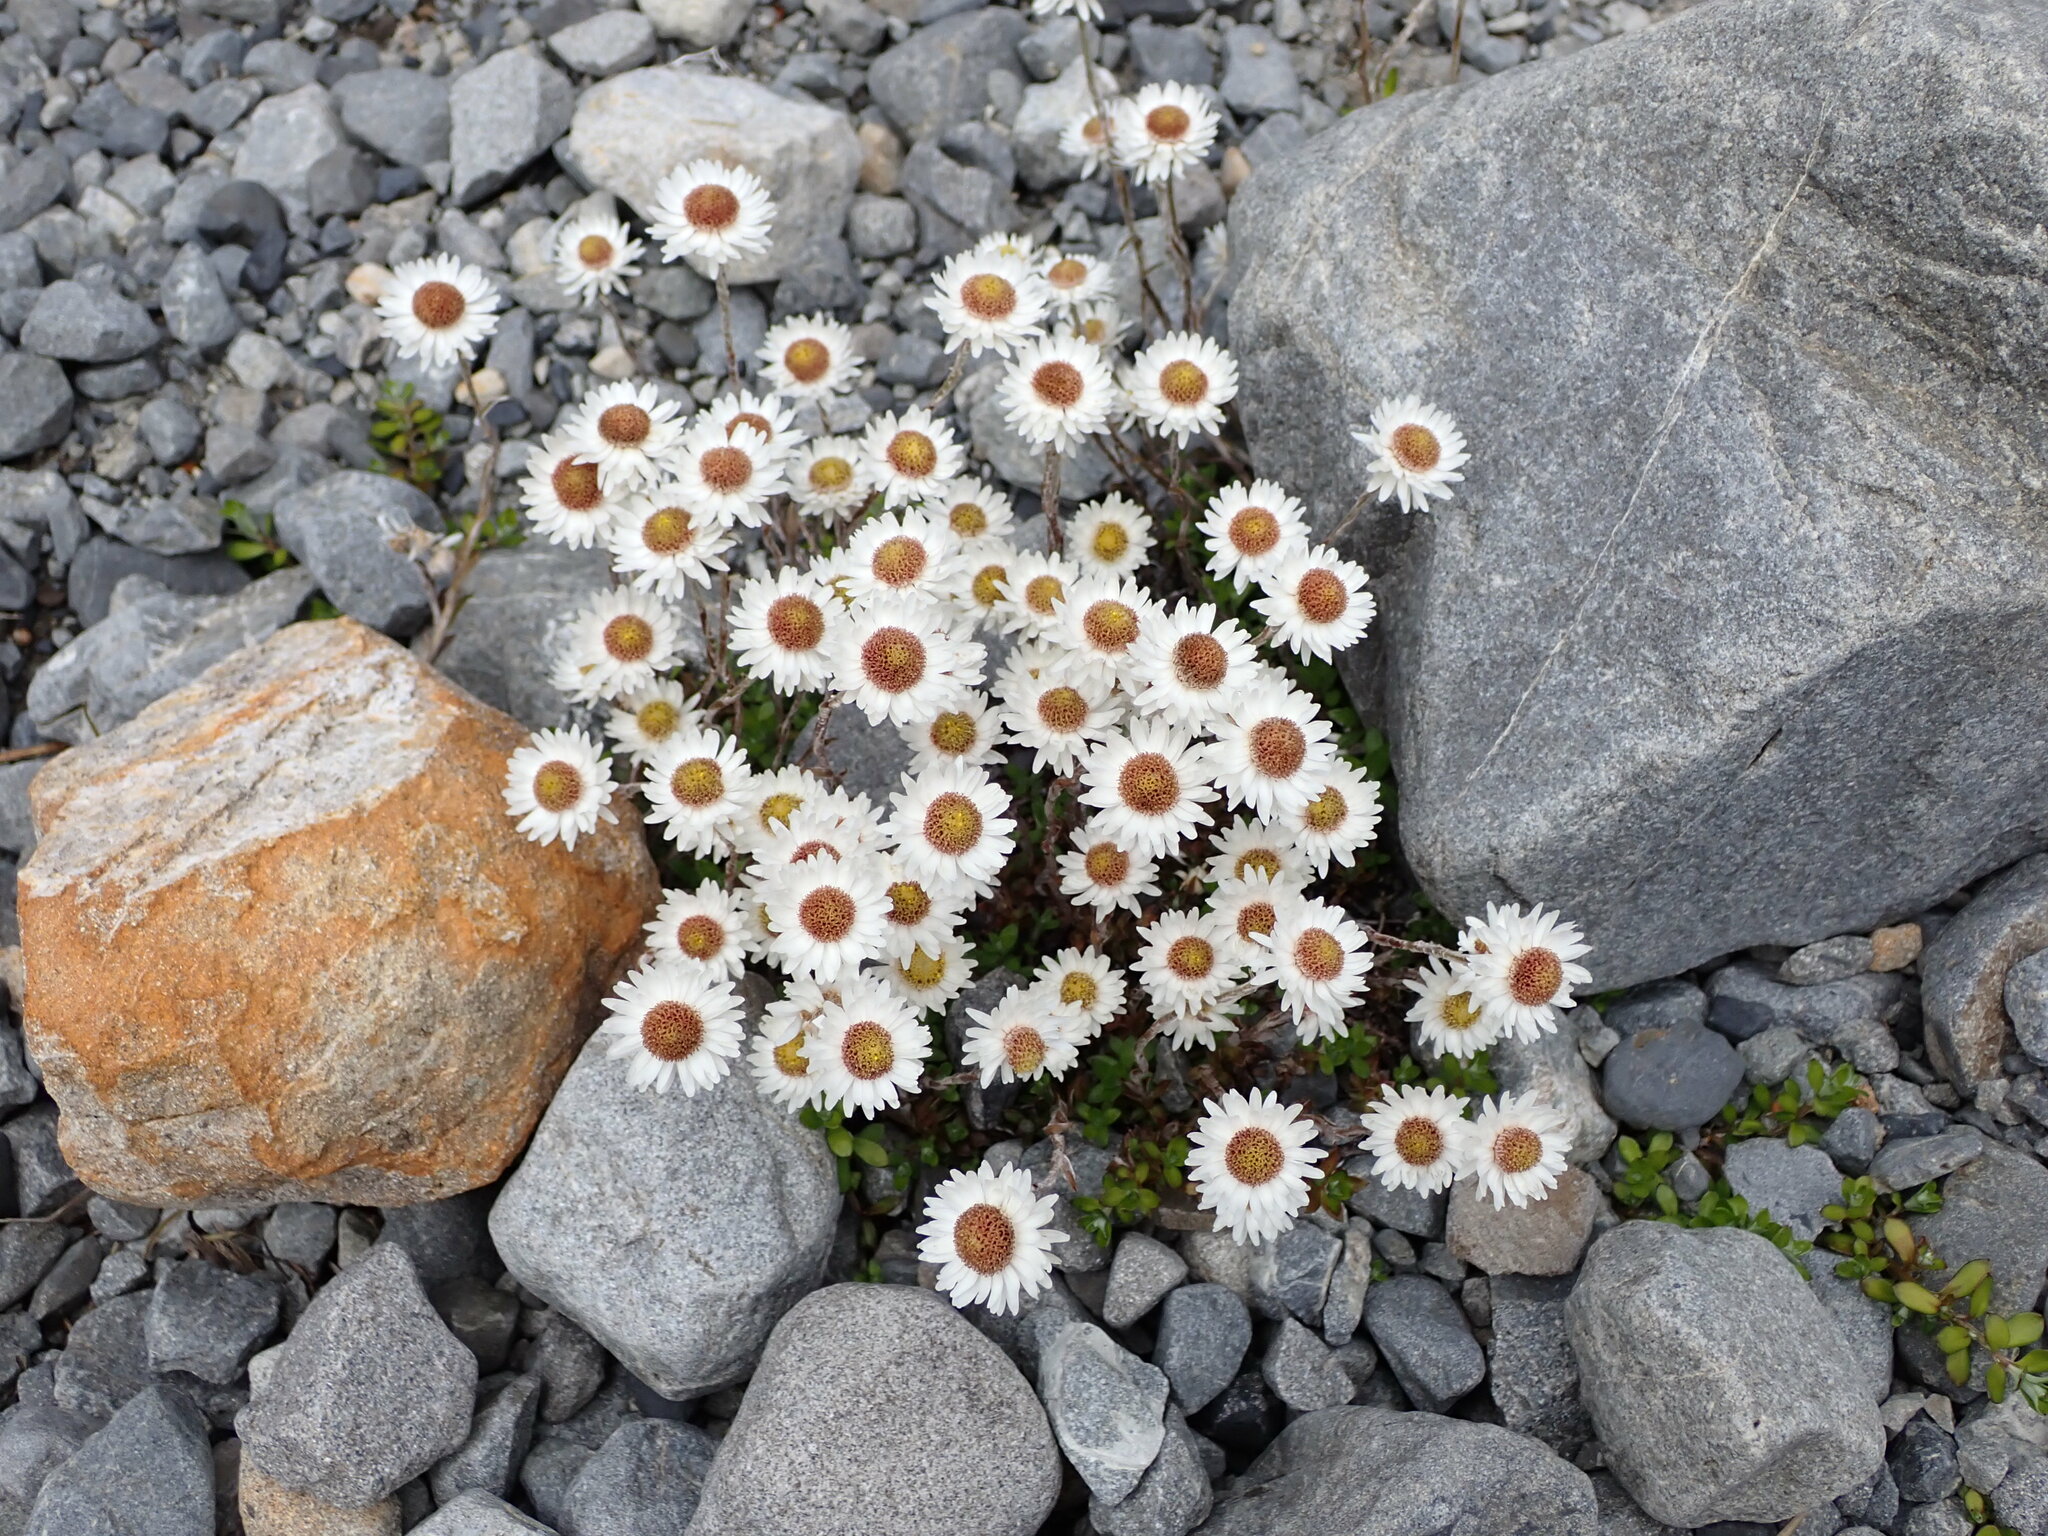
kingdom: Plantae
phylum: Tracheophyta
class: Magnoliopsida
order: Asterales
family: Asteraceae
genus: Anaphalioides
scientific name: Anaphalioides bellidioides
